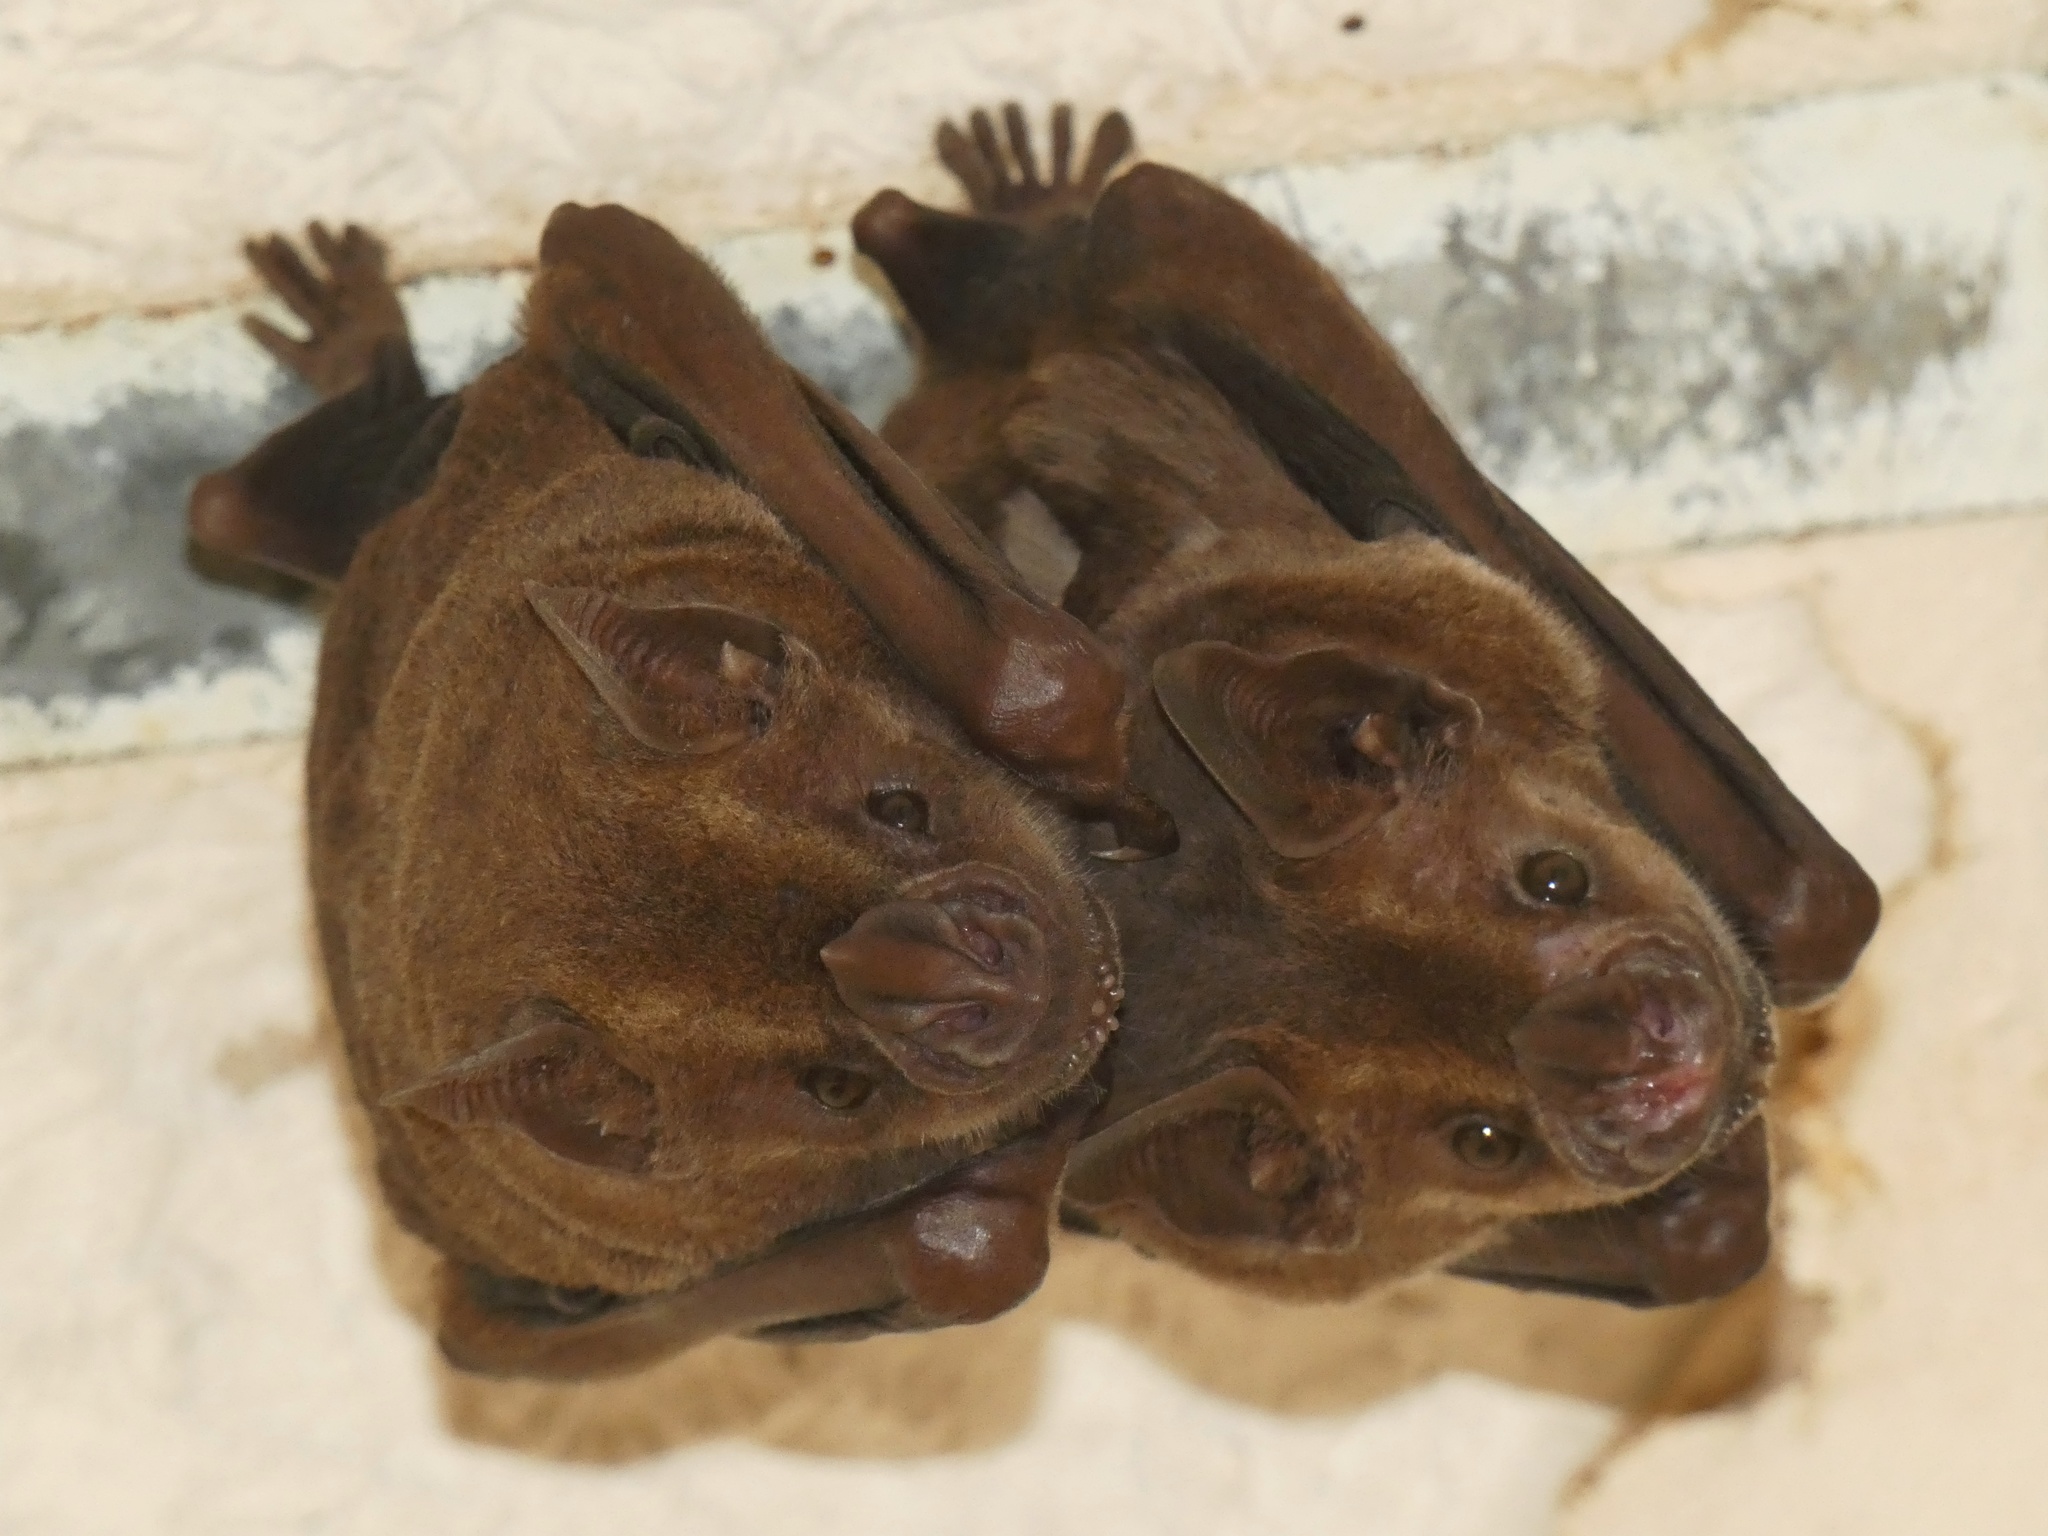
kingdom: Animalia
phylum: Chordata
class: Mammalia
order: Chiroptera
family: Phyllostomidae
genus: Artibeus
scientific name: Artibeus jamaicensis
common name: Jamaican fruit-eating bat
